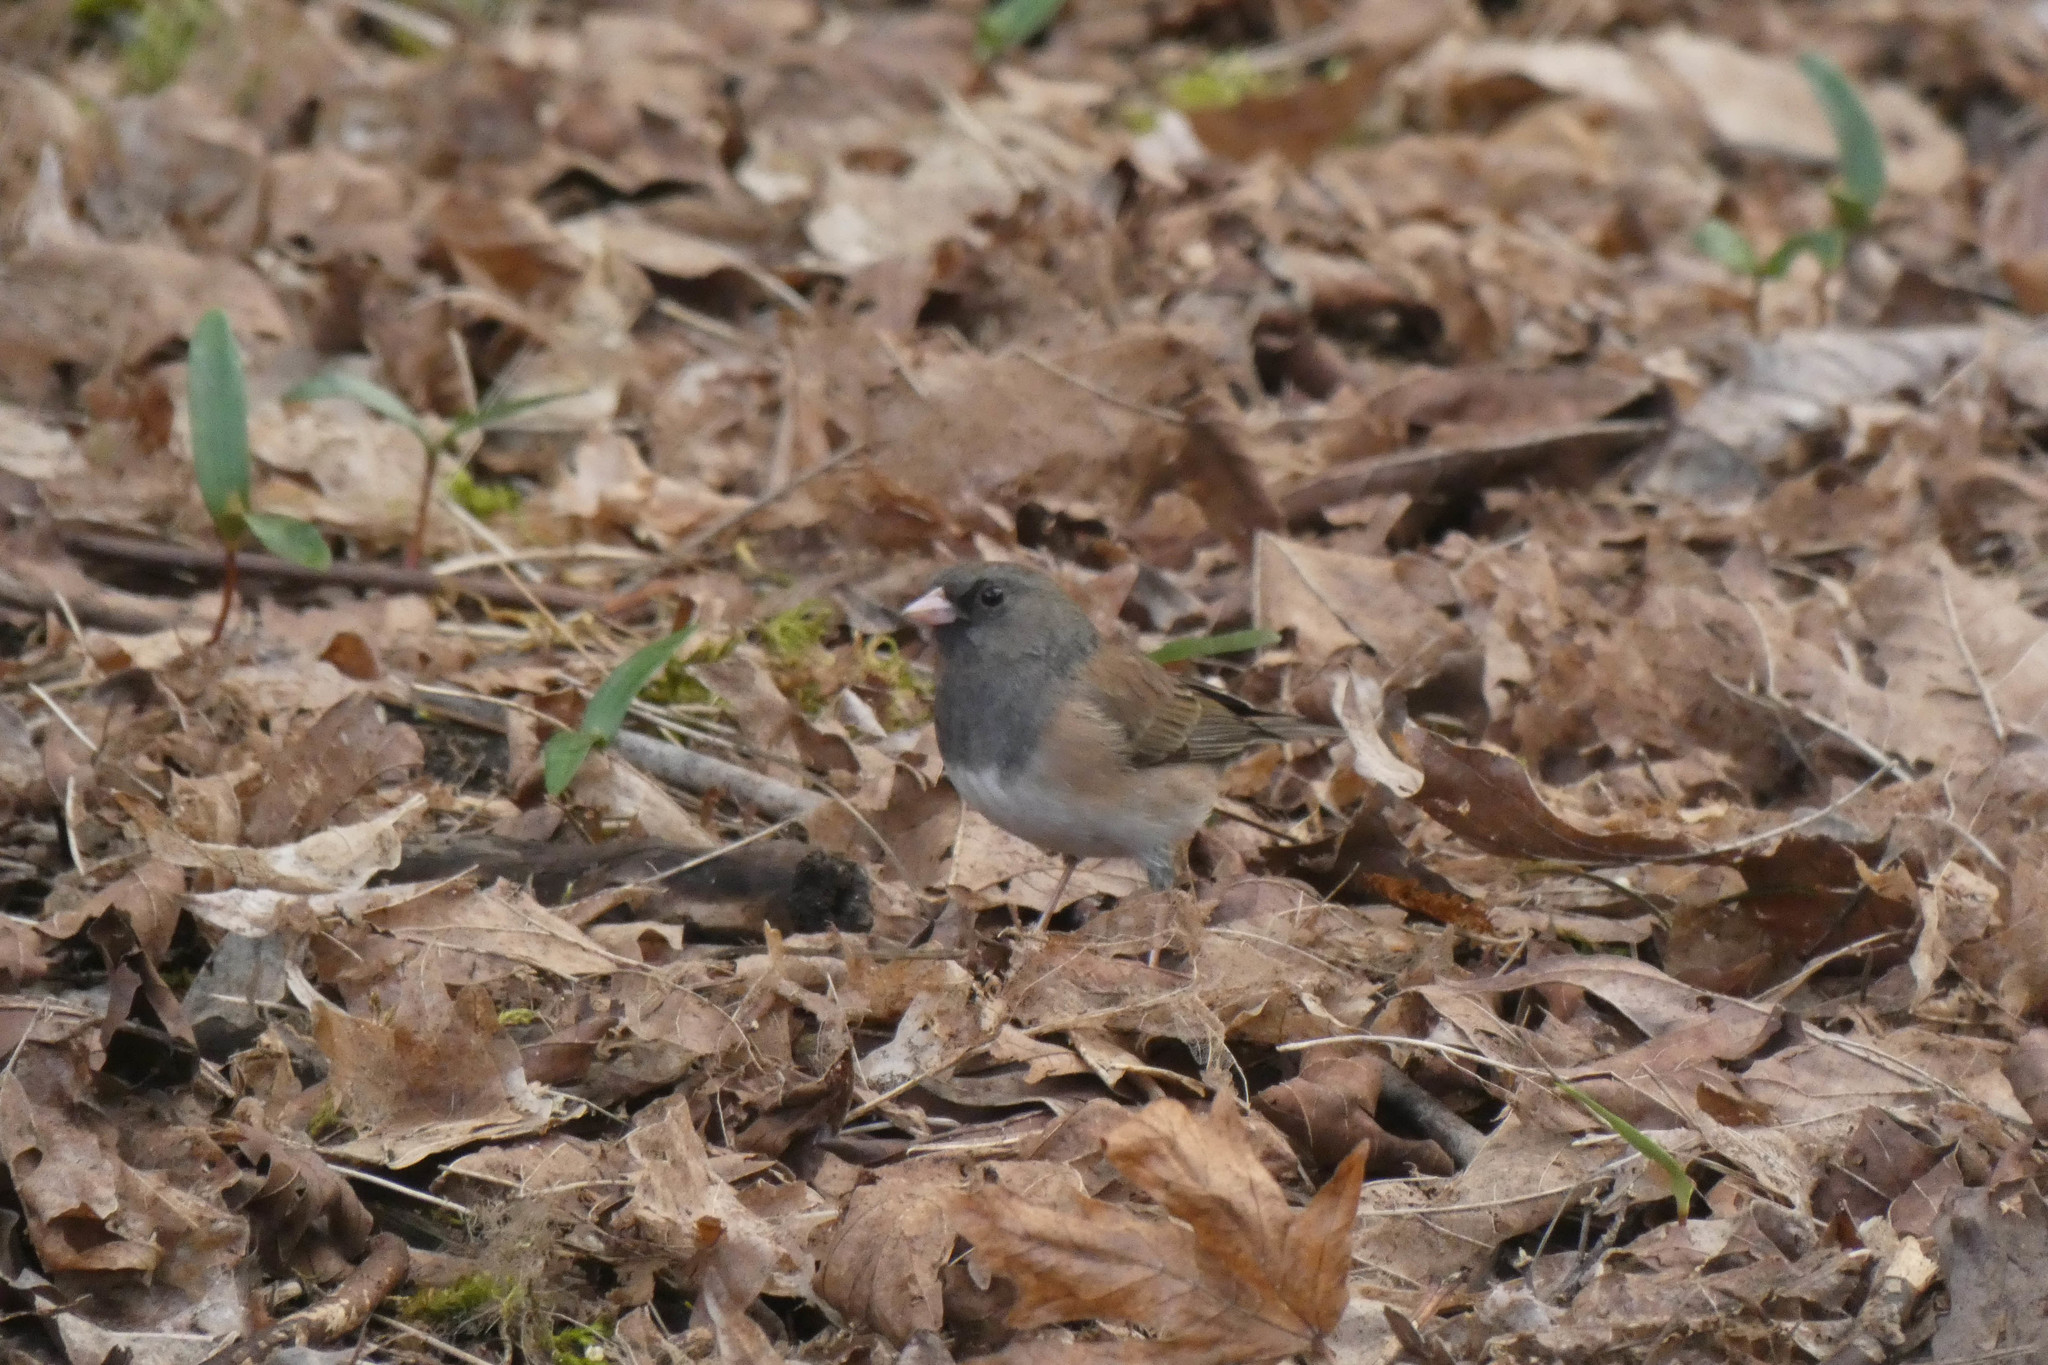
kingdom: Animalia
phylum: Chordata
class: Aves
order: Passeriformes
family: Passerellidae
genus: Junco
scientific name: Junco hyemalis
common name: Dark-eyed junco
